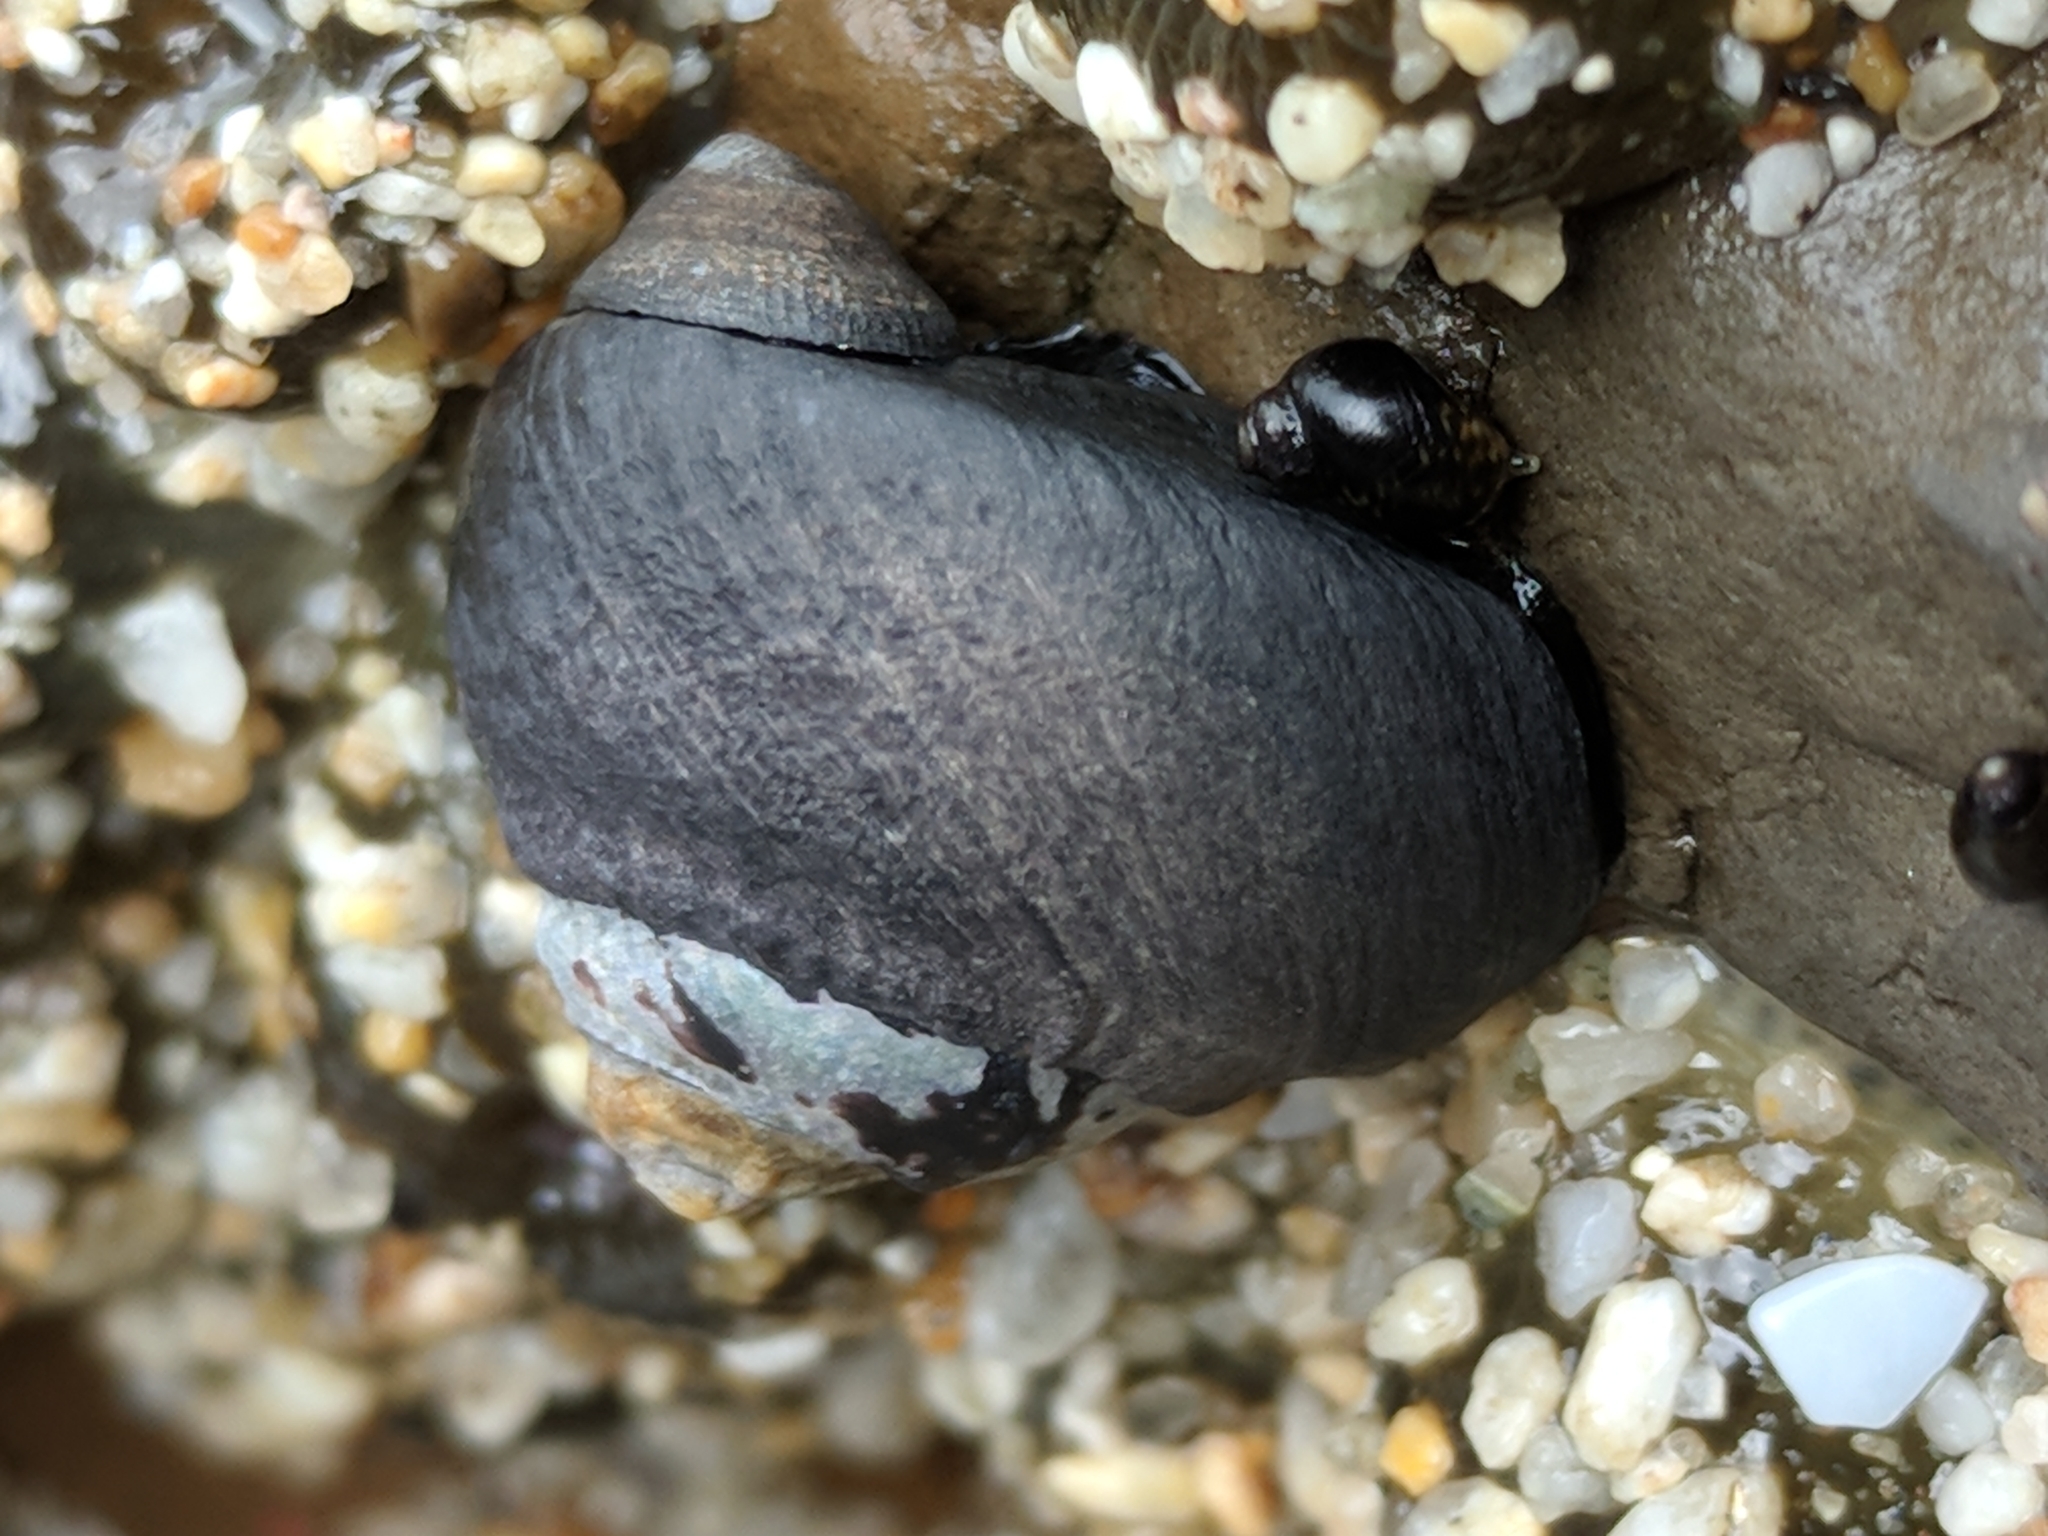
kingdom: Animalia
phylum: Mollusca
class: Gastropoda
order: Trochida
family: Tegulidae
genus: Tegula
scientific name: Tegula funebralis
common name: Black tegula
